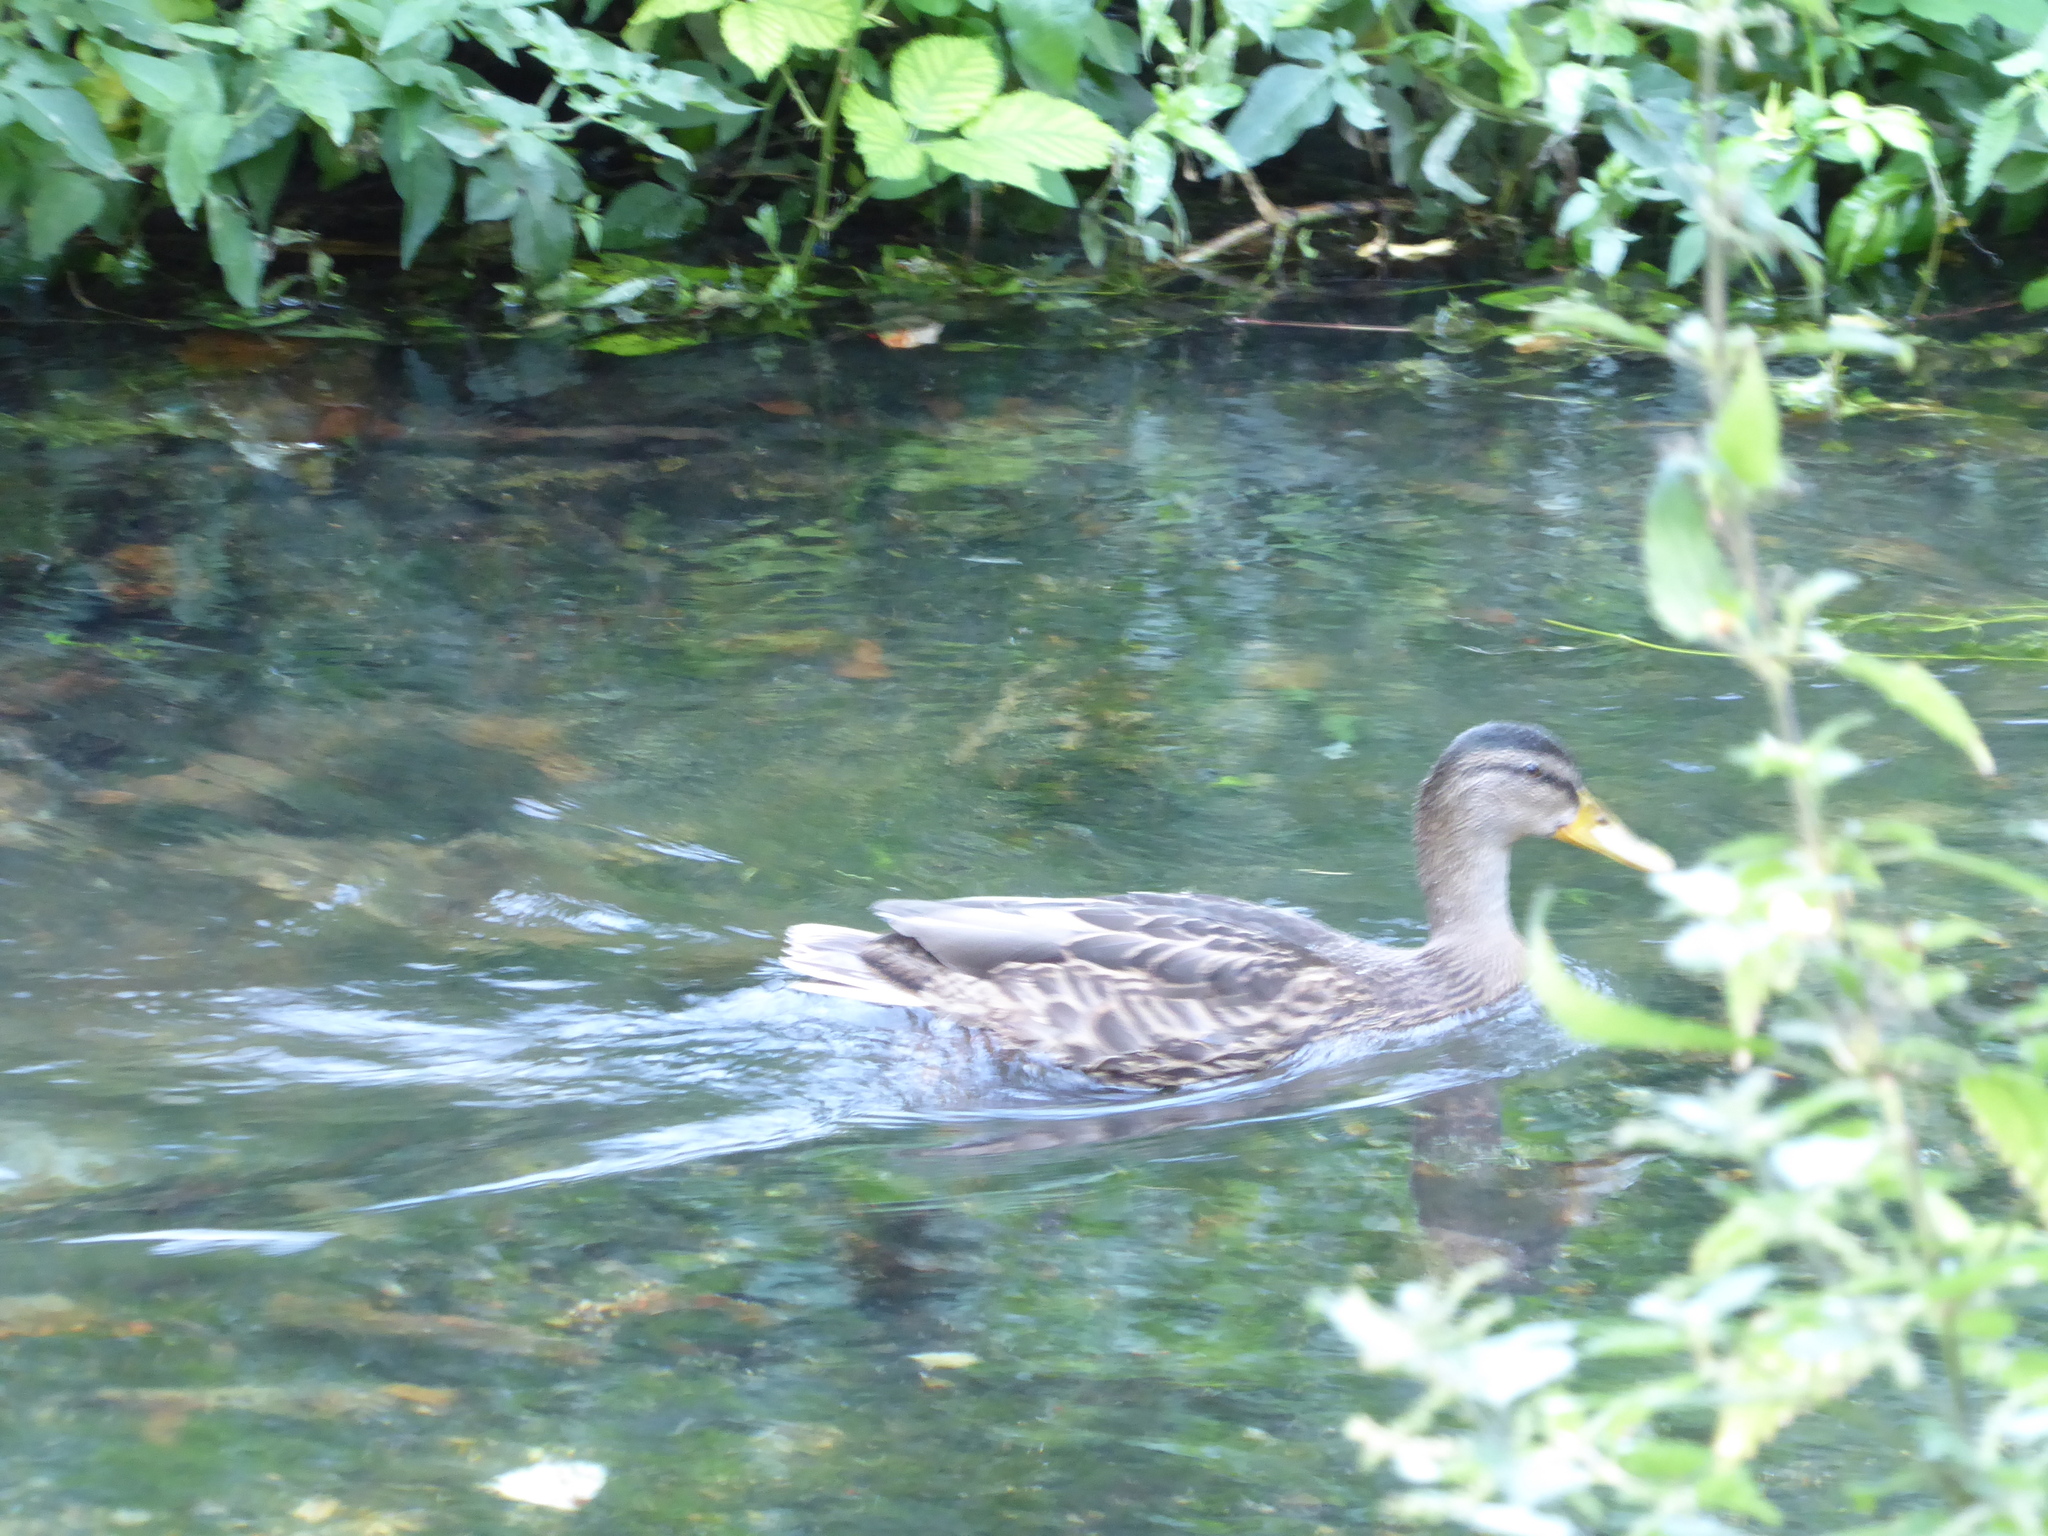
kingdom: Animalia
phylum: Chordata
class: Aves
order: Anseriformes
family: Anatidae
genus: Anas
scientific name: Anas platyrhynchos
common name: Mallard
